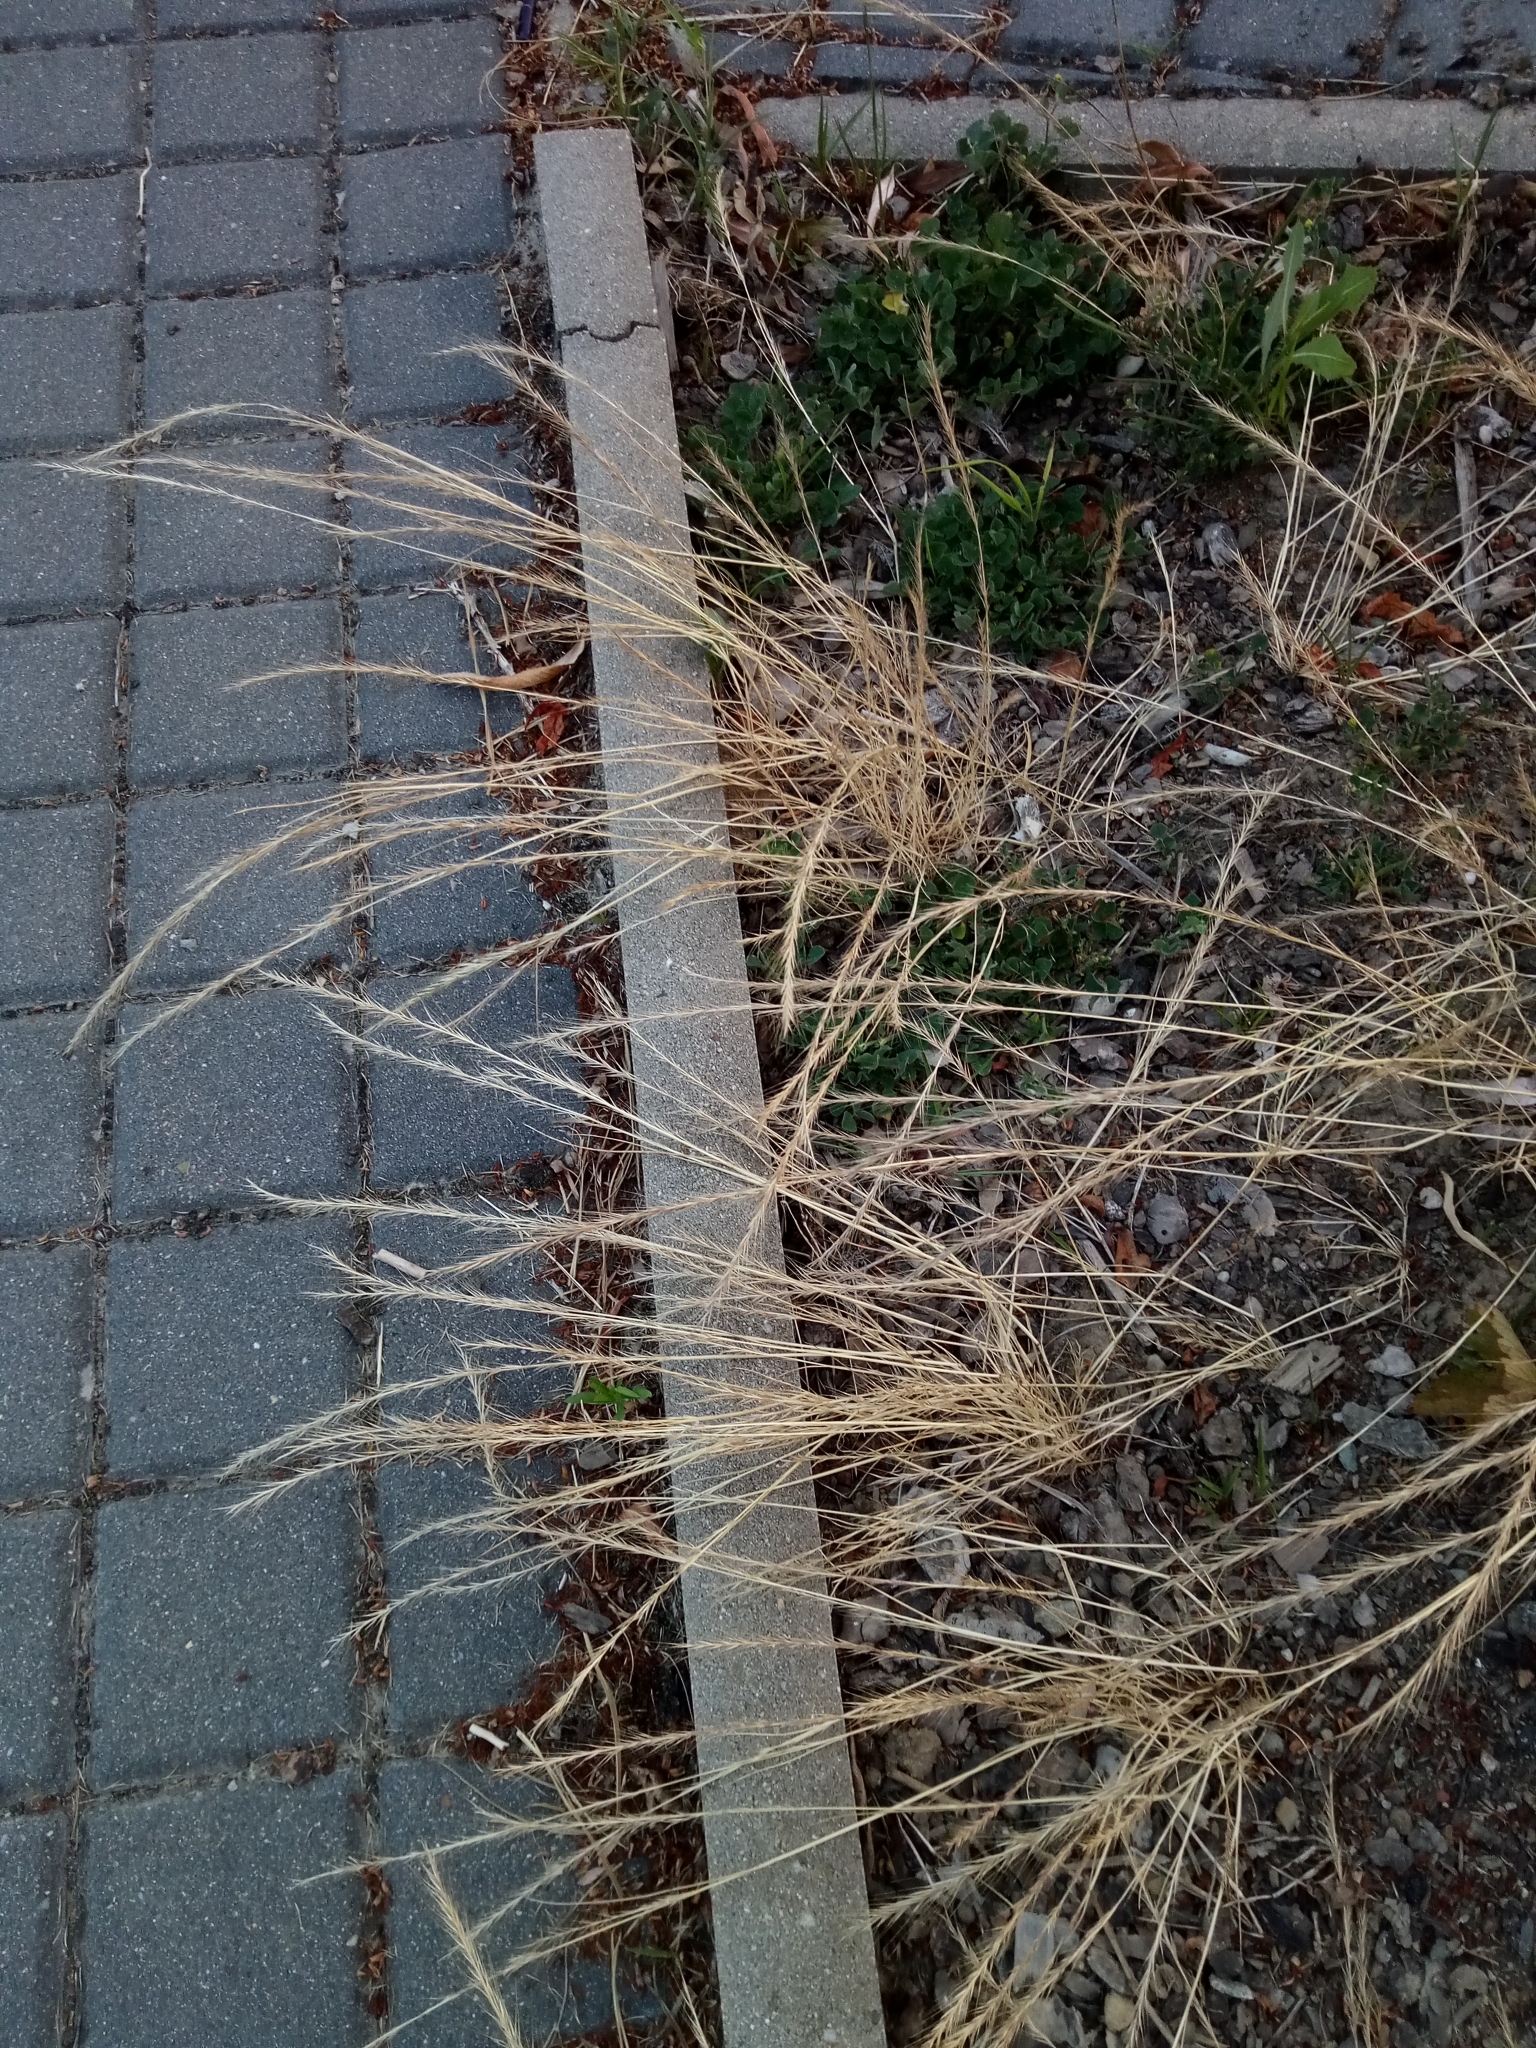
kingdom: Plantae
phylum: Tracheophyta
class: Liliopsida
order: Poales
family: Poaceae
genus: Festuca
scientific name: Festuca myuros
